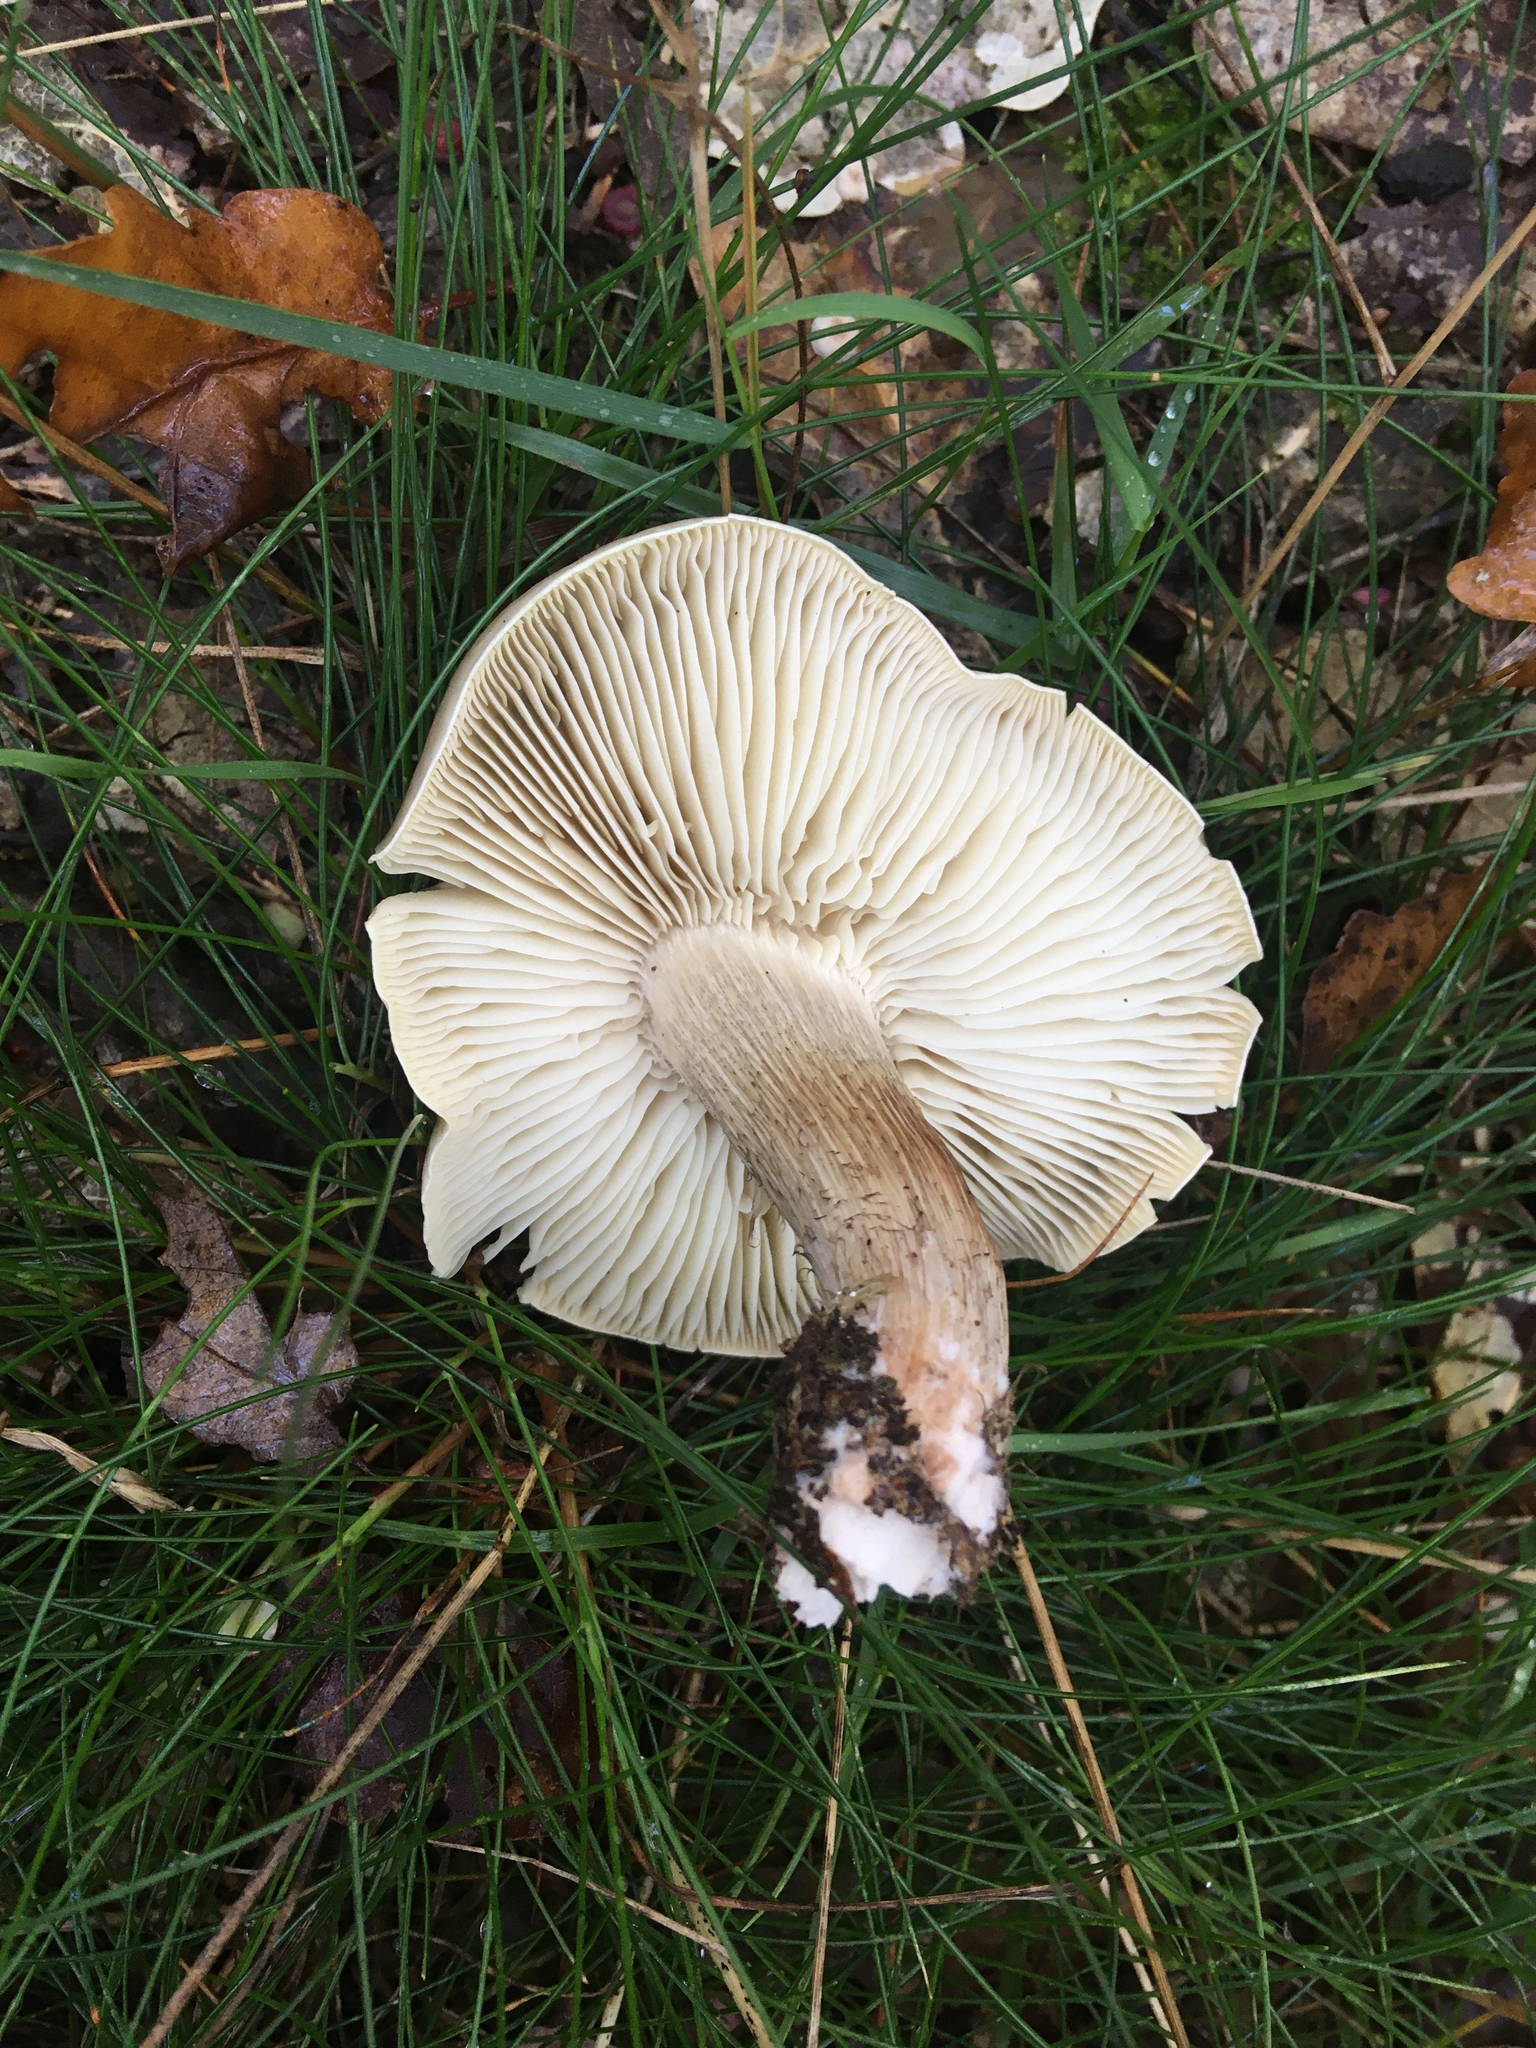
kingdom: Fungi
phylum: Basidiomycota
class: Agaricomycetes
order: Agaricales
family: Tricholomataceae
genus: Tricholoma
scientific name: Tricholoma saponaceum
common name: Soapy trich
